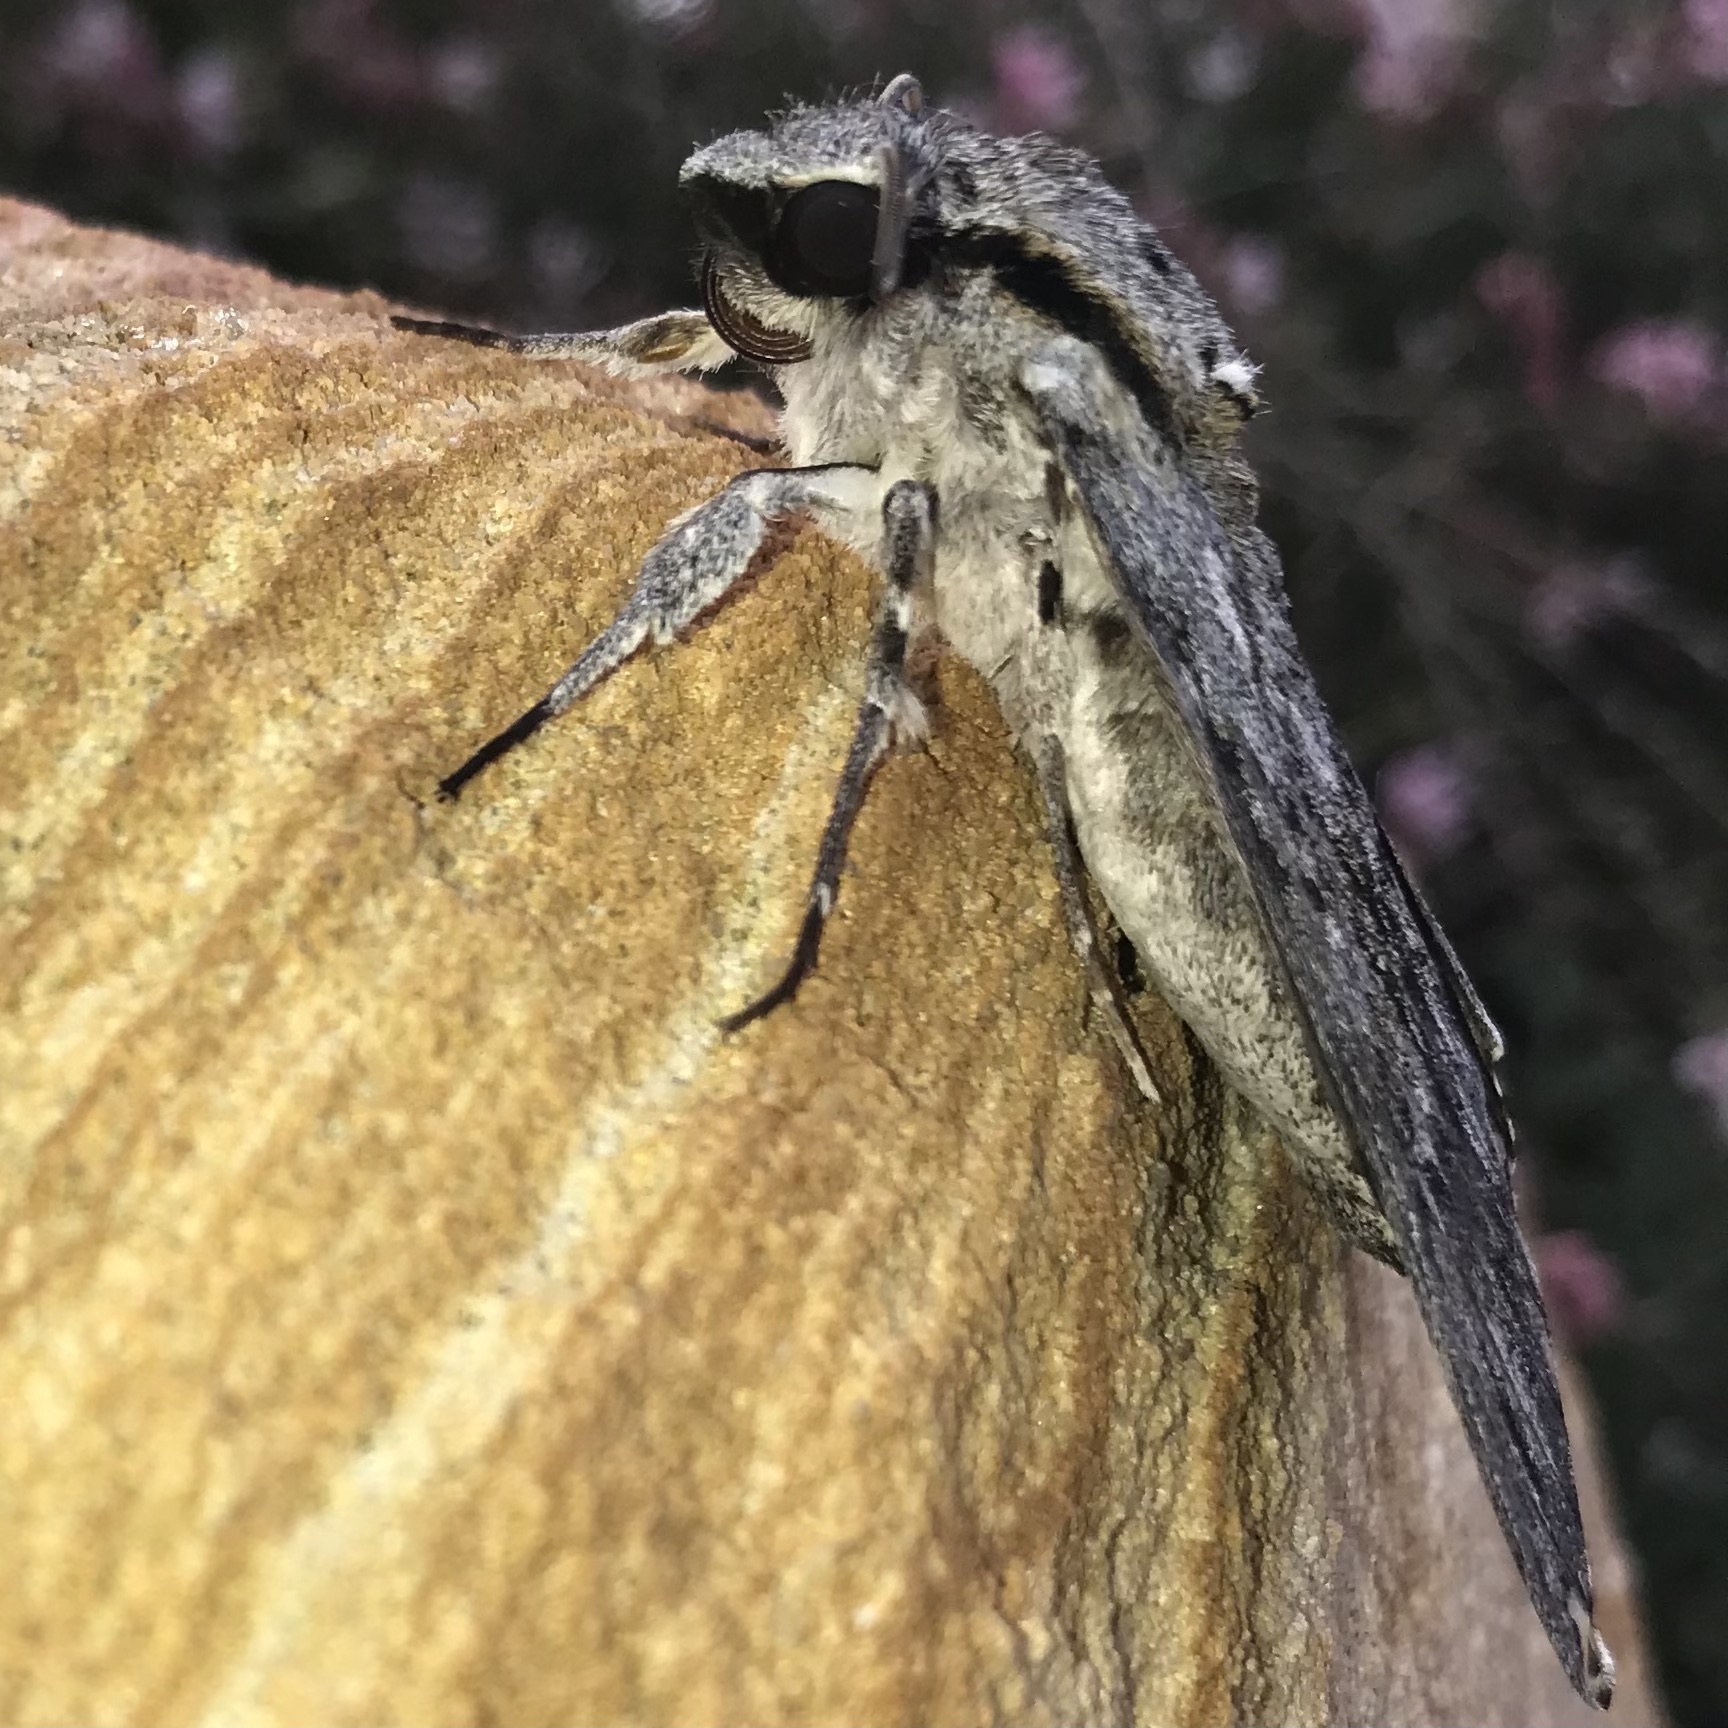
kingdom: Animalia
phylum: Arthropoda
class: Insecta
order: Lepidoptera
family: Sphingidae
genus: Psilogramma
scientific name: Psilogramma casuarinae
